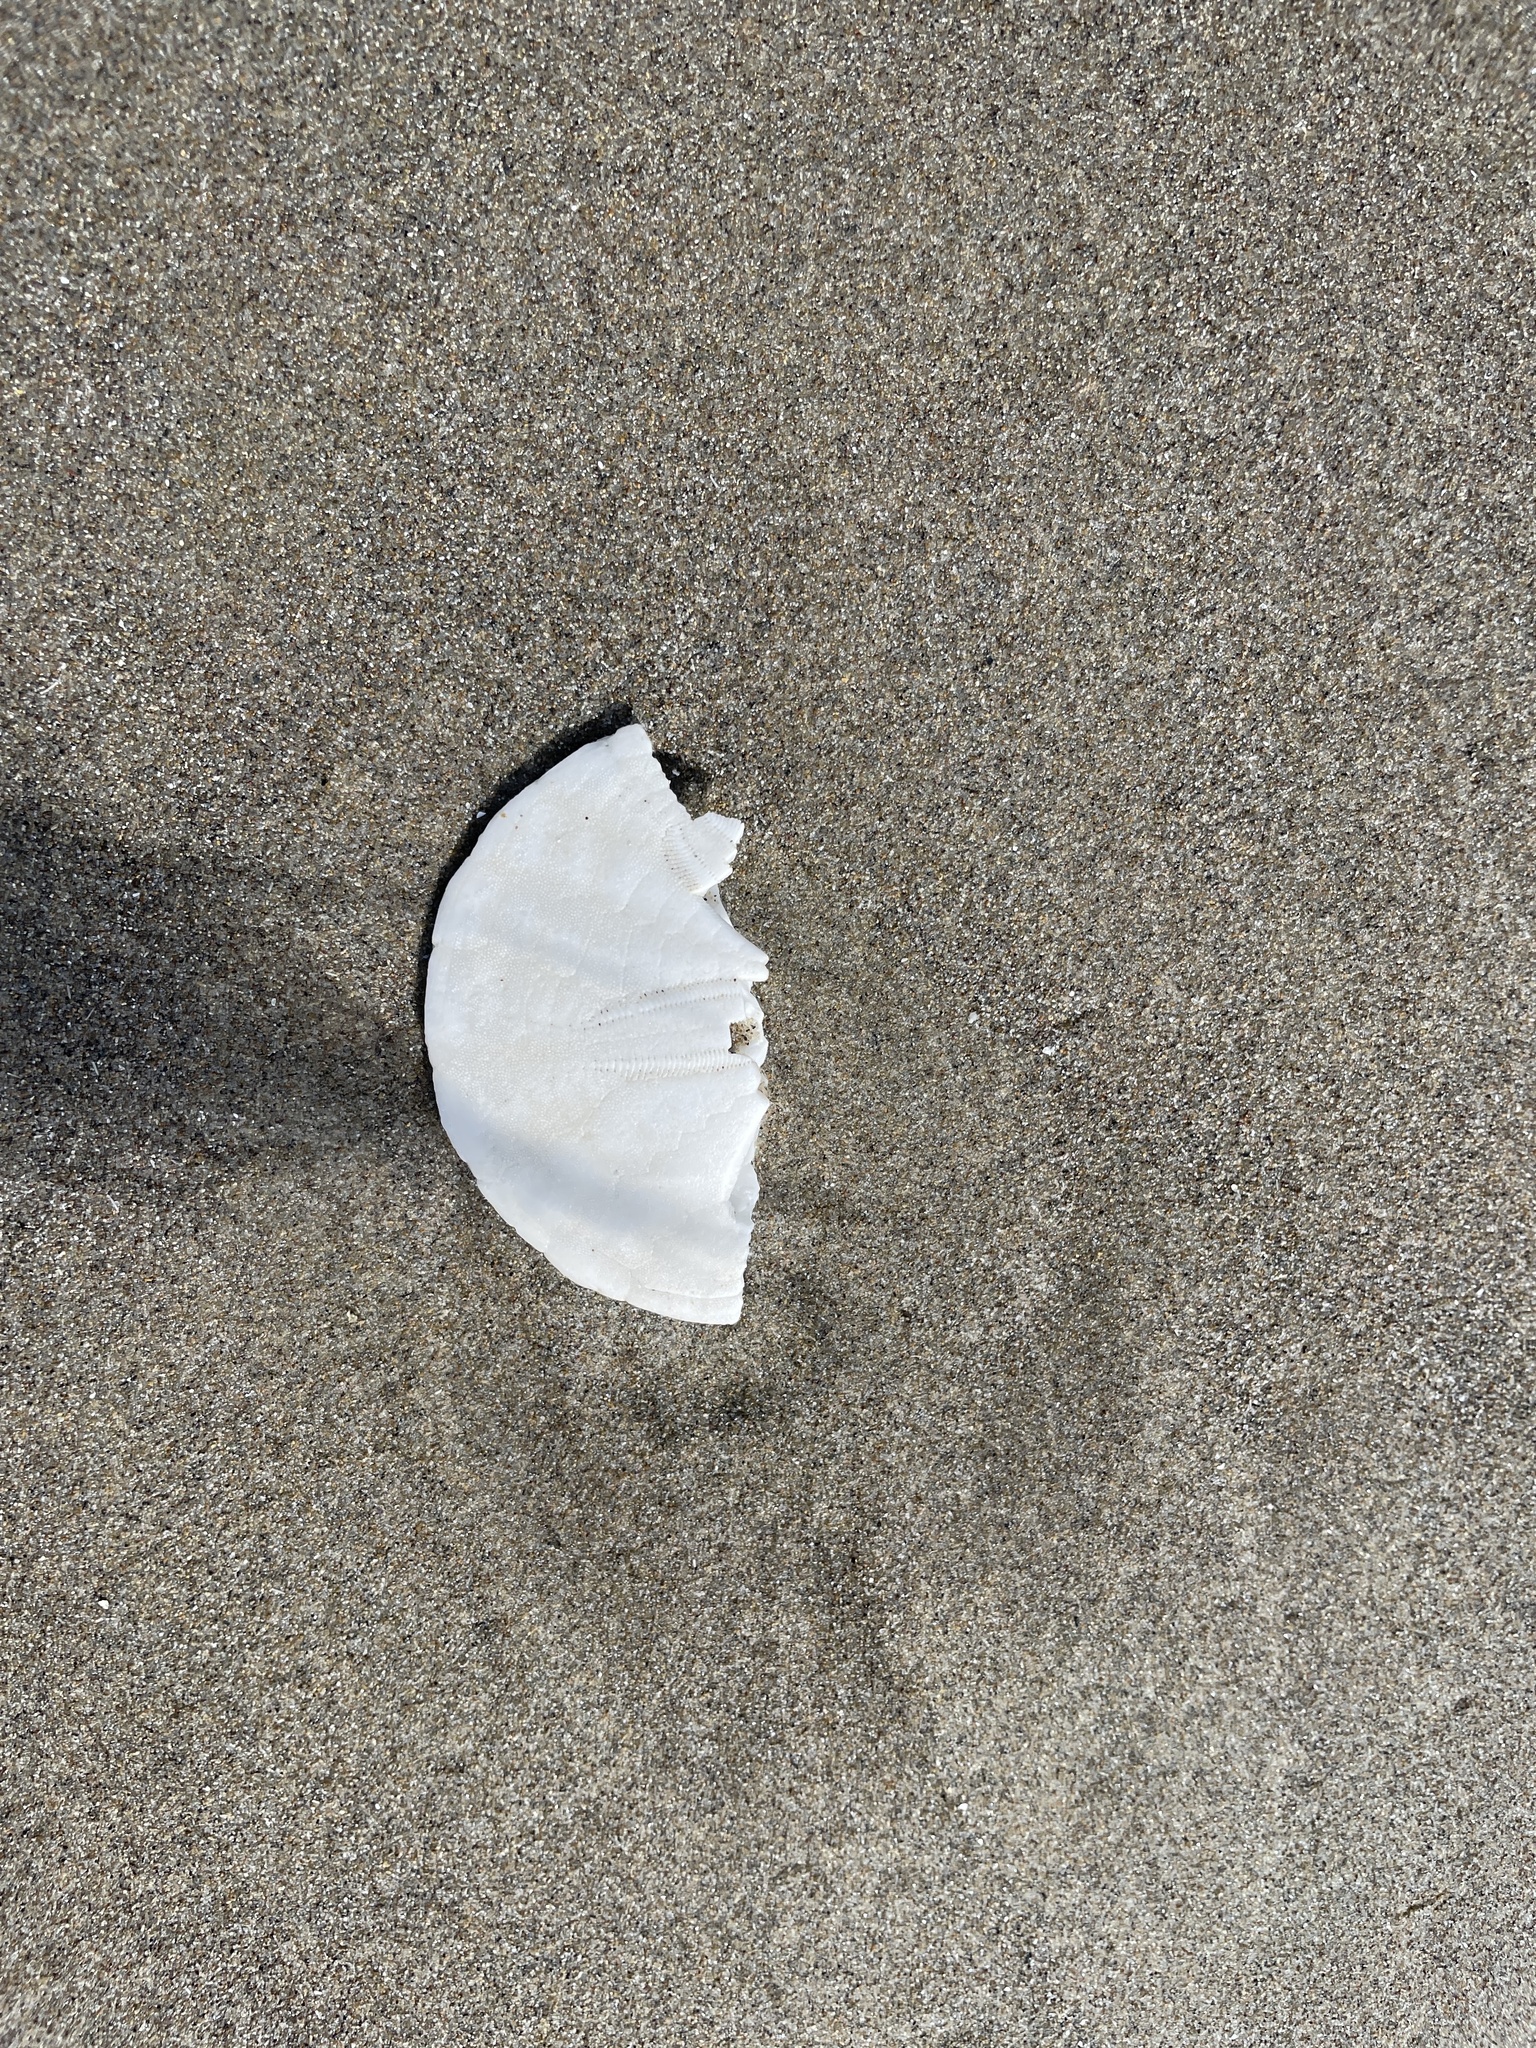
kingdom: Animalia
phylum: Echinodermata
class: Echinoidea
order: Echinolampadacea
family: Dendrasteridae
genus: Dendraster
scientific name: Dendraster excentricus
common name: Eccentric sand dollar sea urchin
